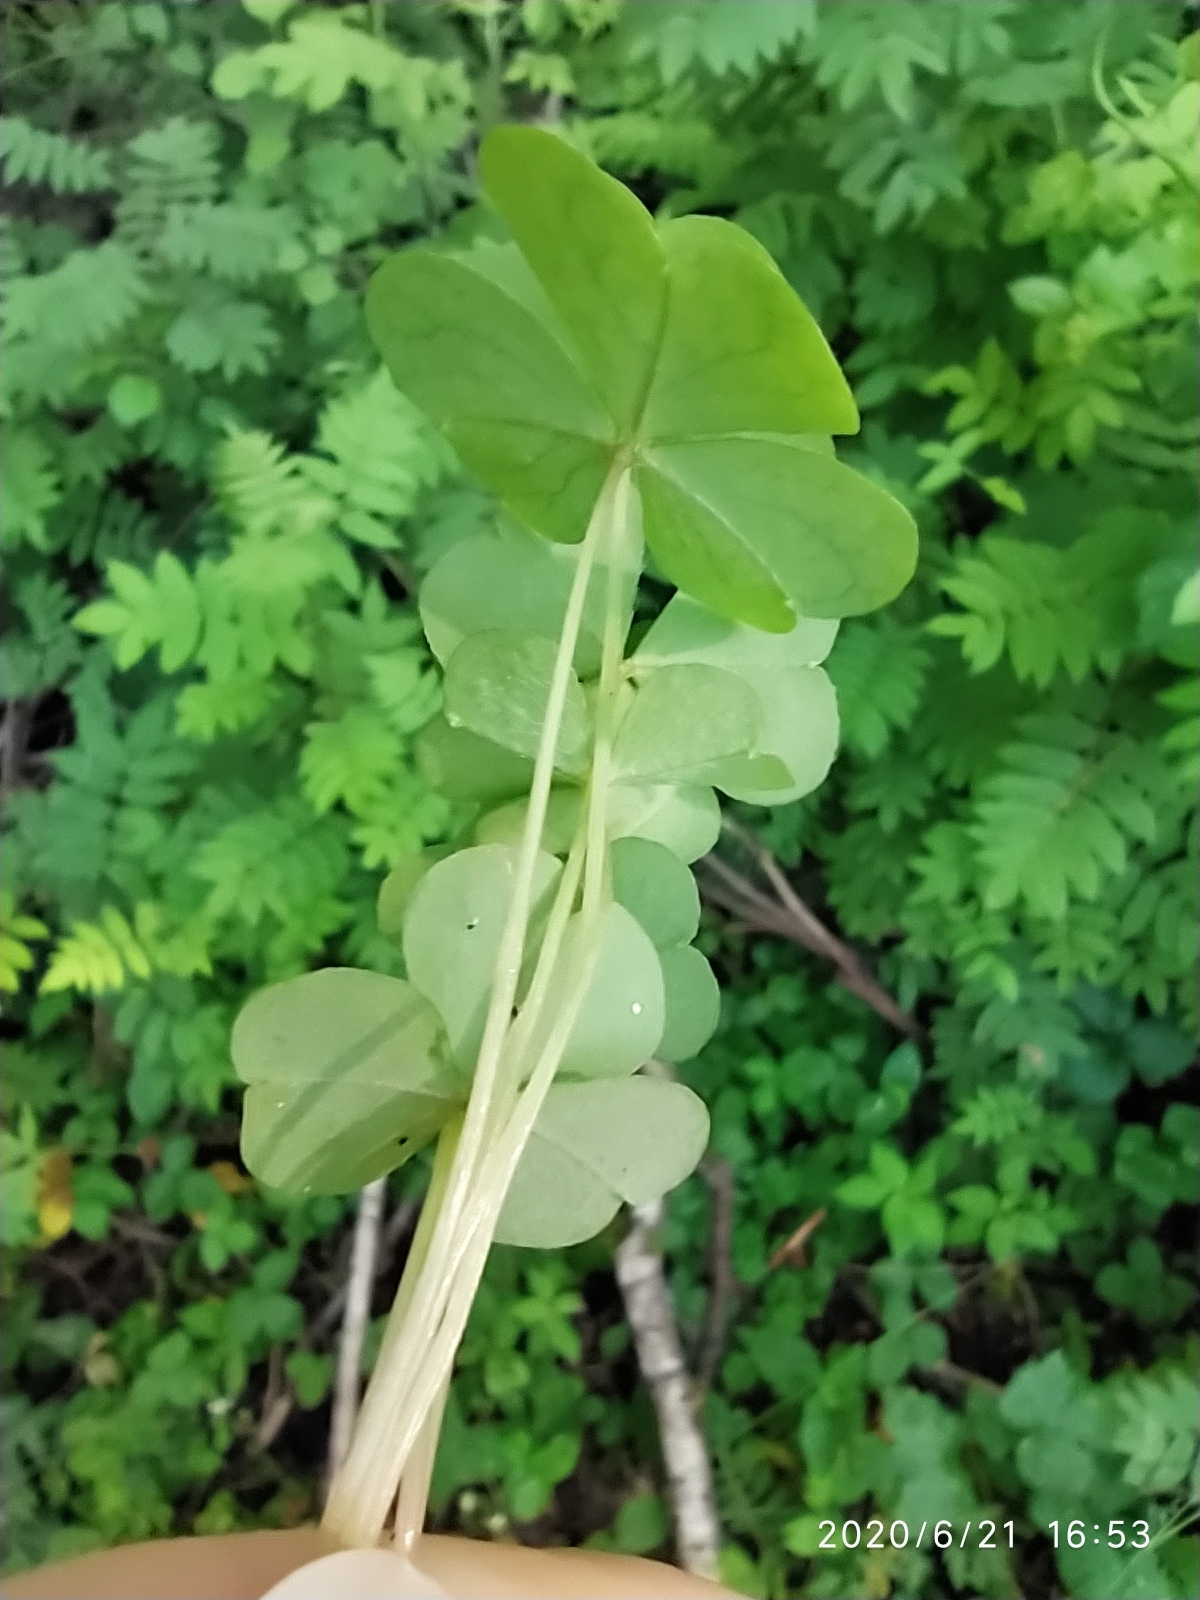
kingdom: Plantae
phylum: Tracheophyta
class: Magnoliopsida
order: Oxalidales
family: Oxalidaceae
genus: Oxalis
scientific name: Oxalis acetosella
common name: Wood-sorrel
